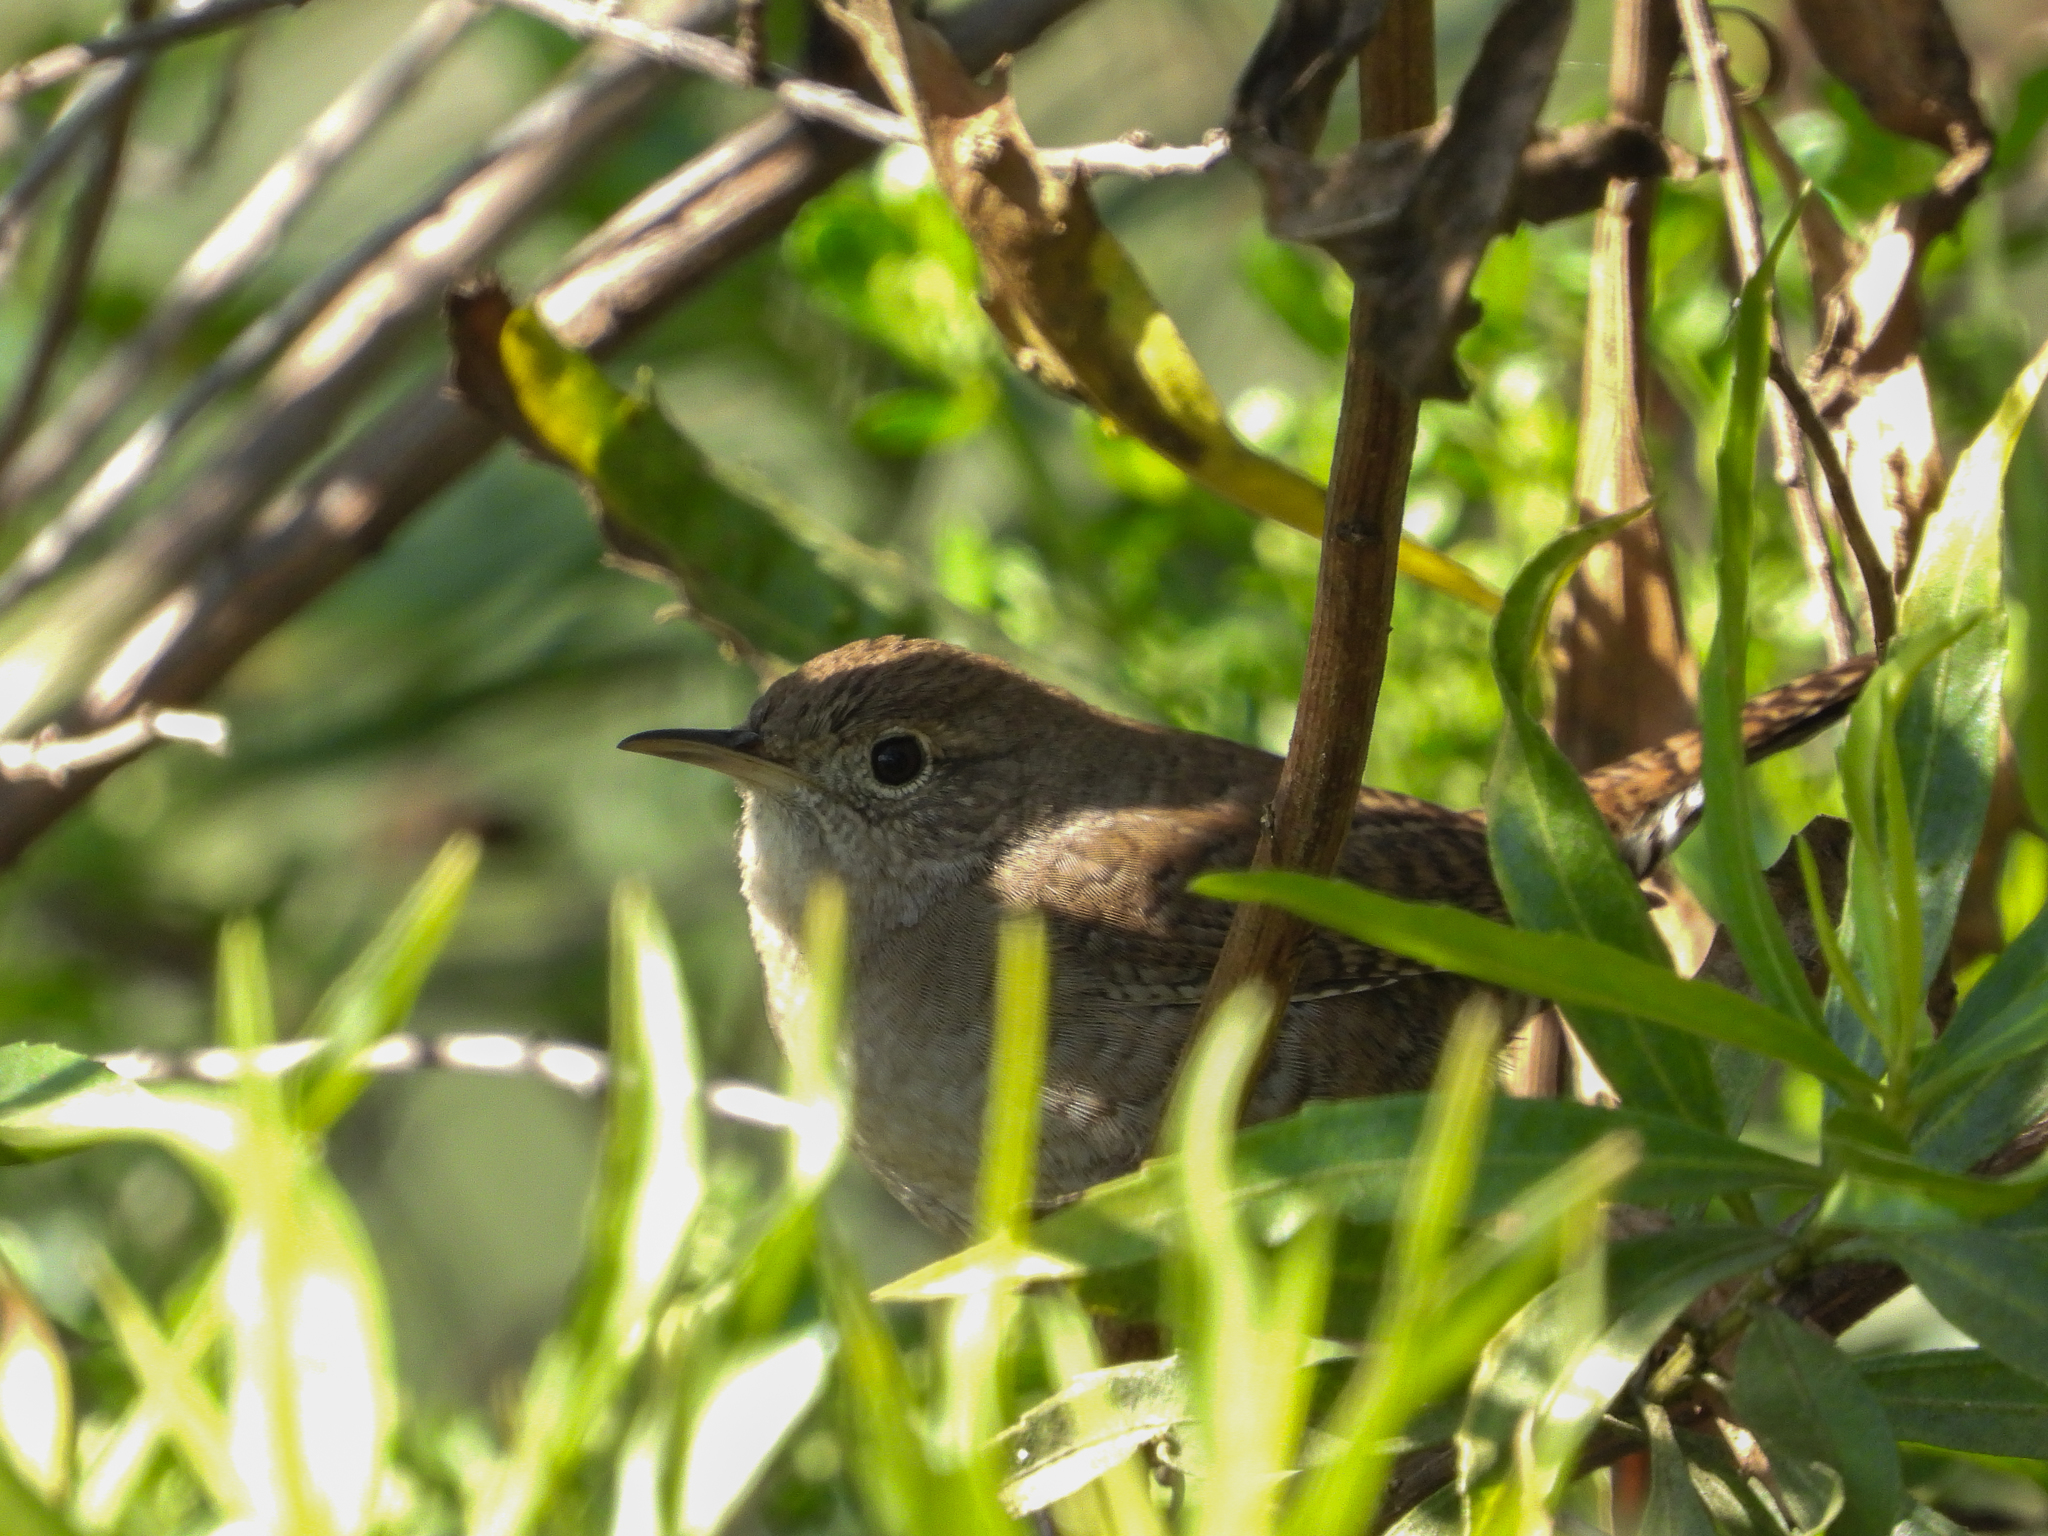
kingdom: Animalia
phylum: Chordata
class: Aves
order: Passeriformes
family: Troglodytidae
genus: Troglodytes
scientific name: Troglodytes aedon
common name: House wren
